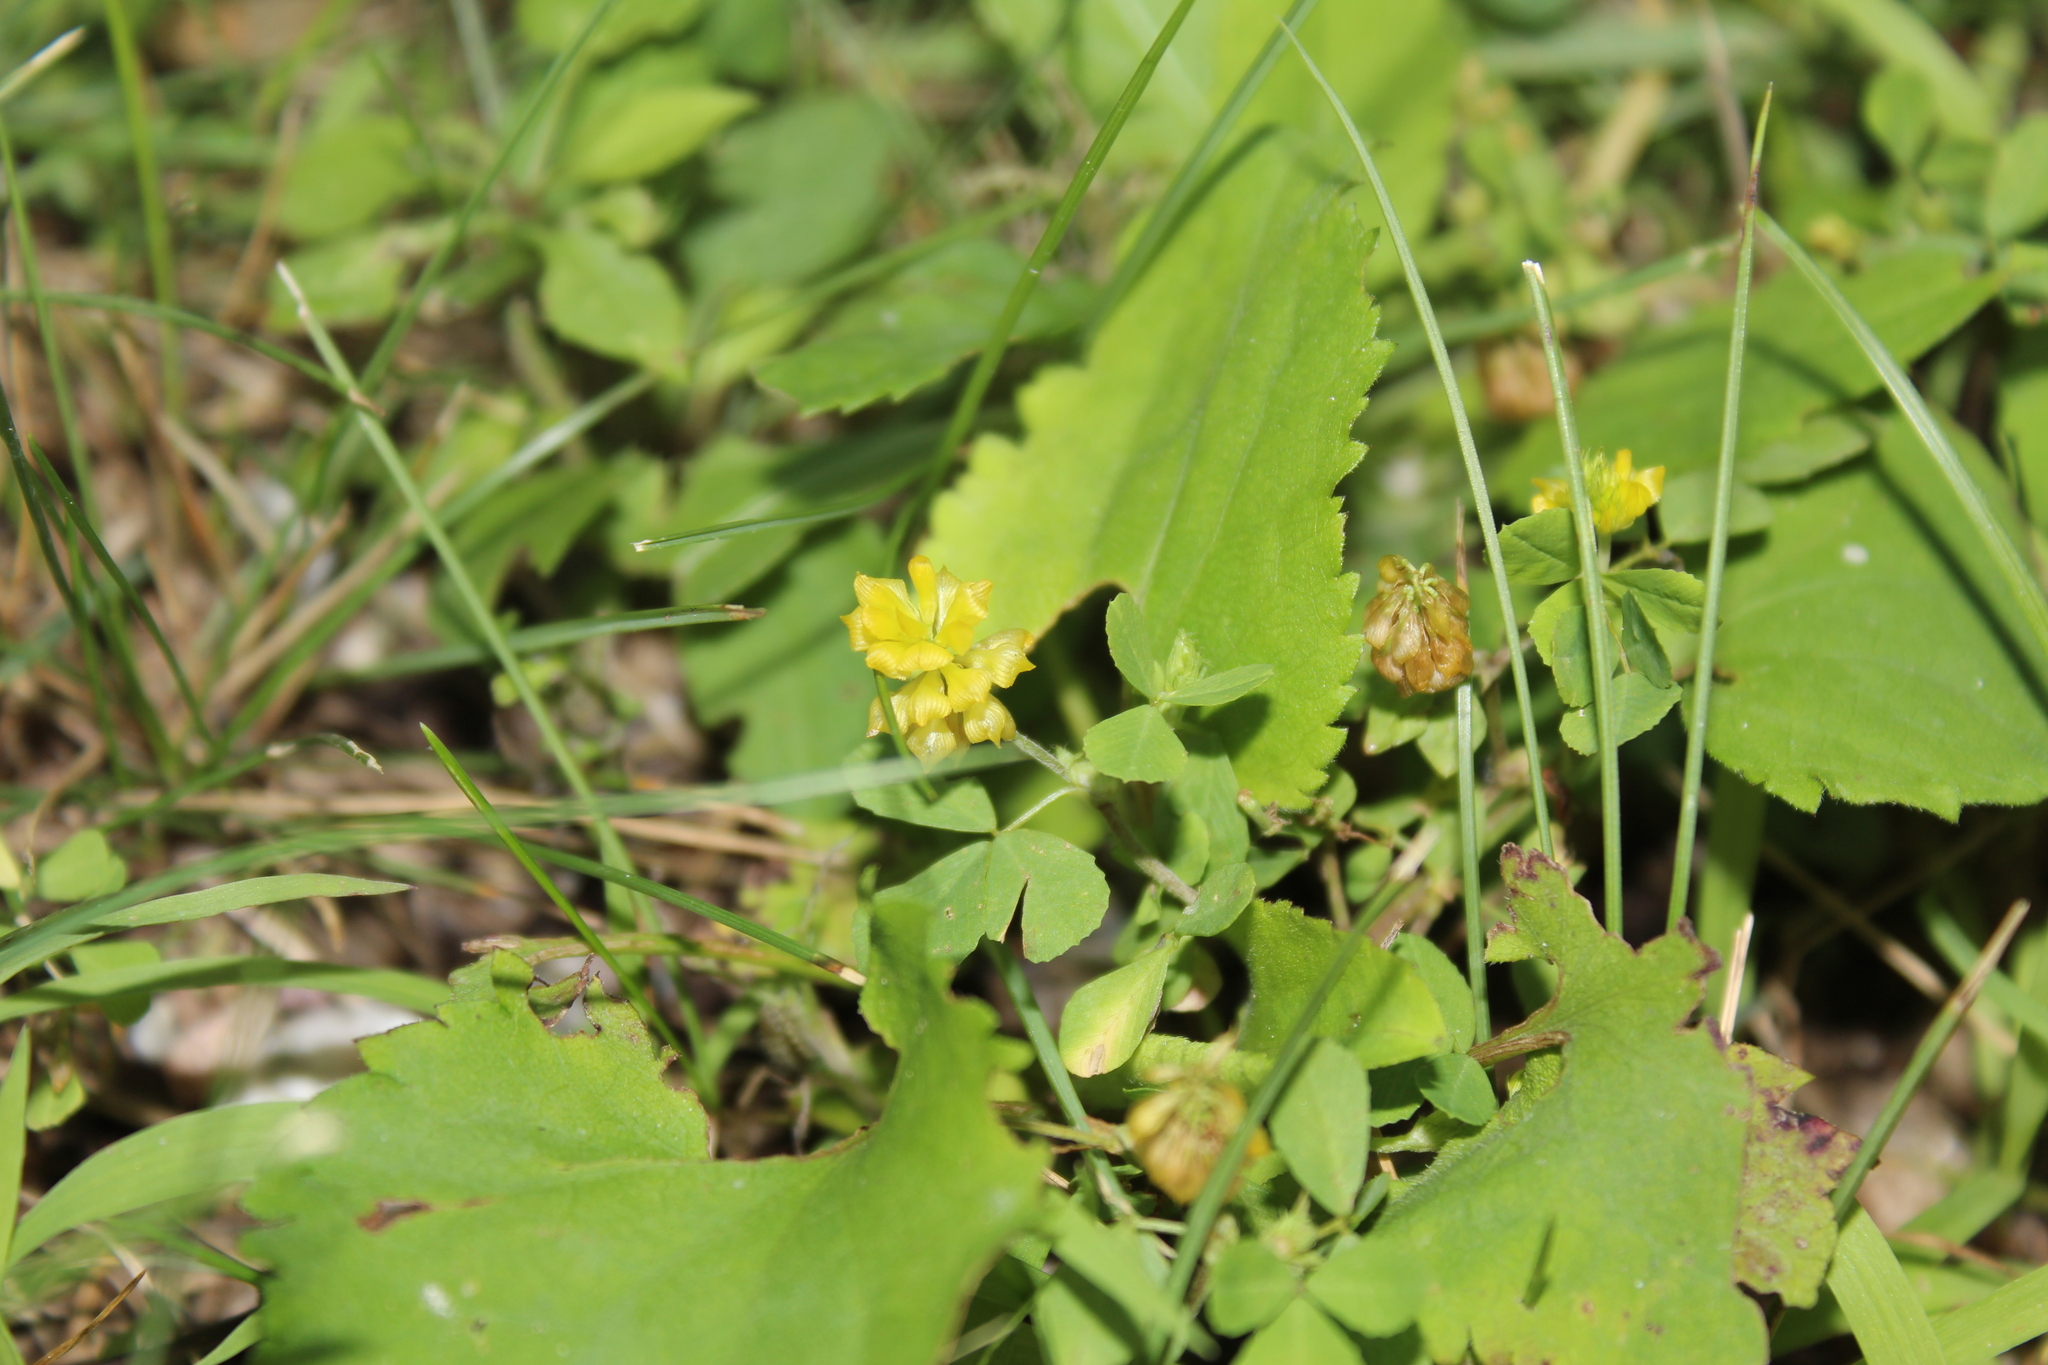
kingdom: Plantae
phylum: Tracheophyta
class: Magnoliopsida
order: Fabales
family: Fabaceae
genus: Trifolium
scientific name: Trifolium campestre
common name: Field clover
